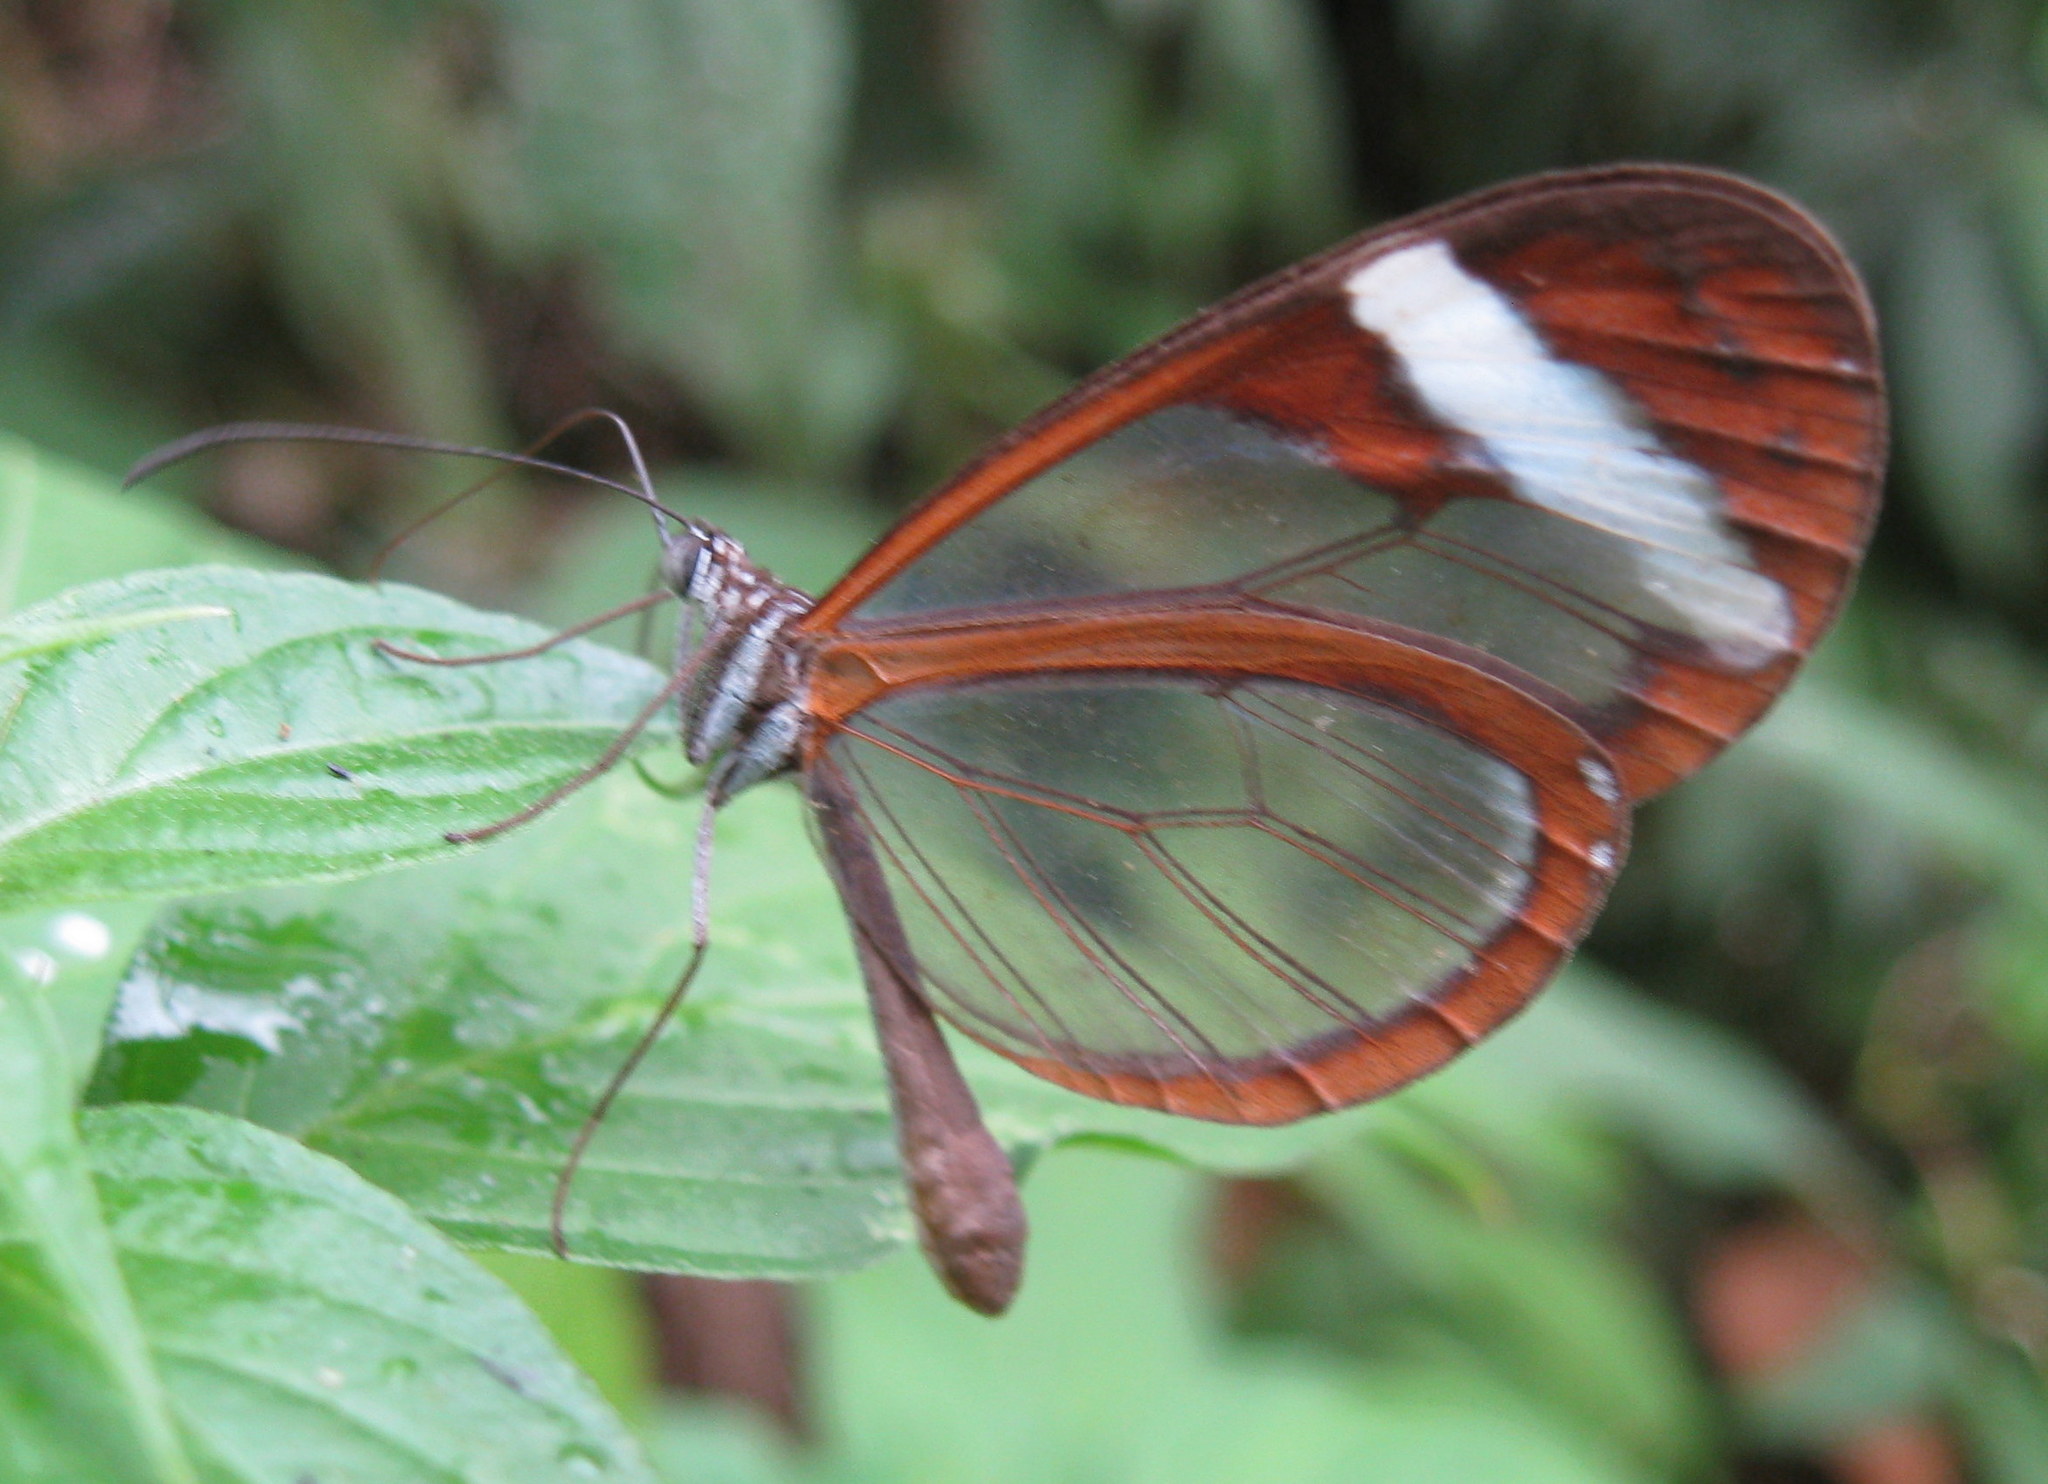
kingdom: Animalia
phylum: Arthropoda
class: Insecta
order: Lepidoptera
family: Nymphalidae
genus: Oleria
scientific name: Oleria paula
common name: Paula's clearwing
